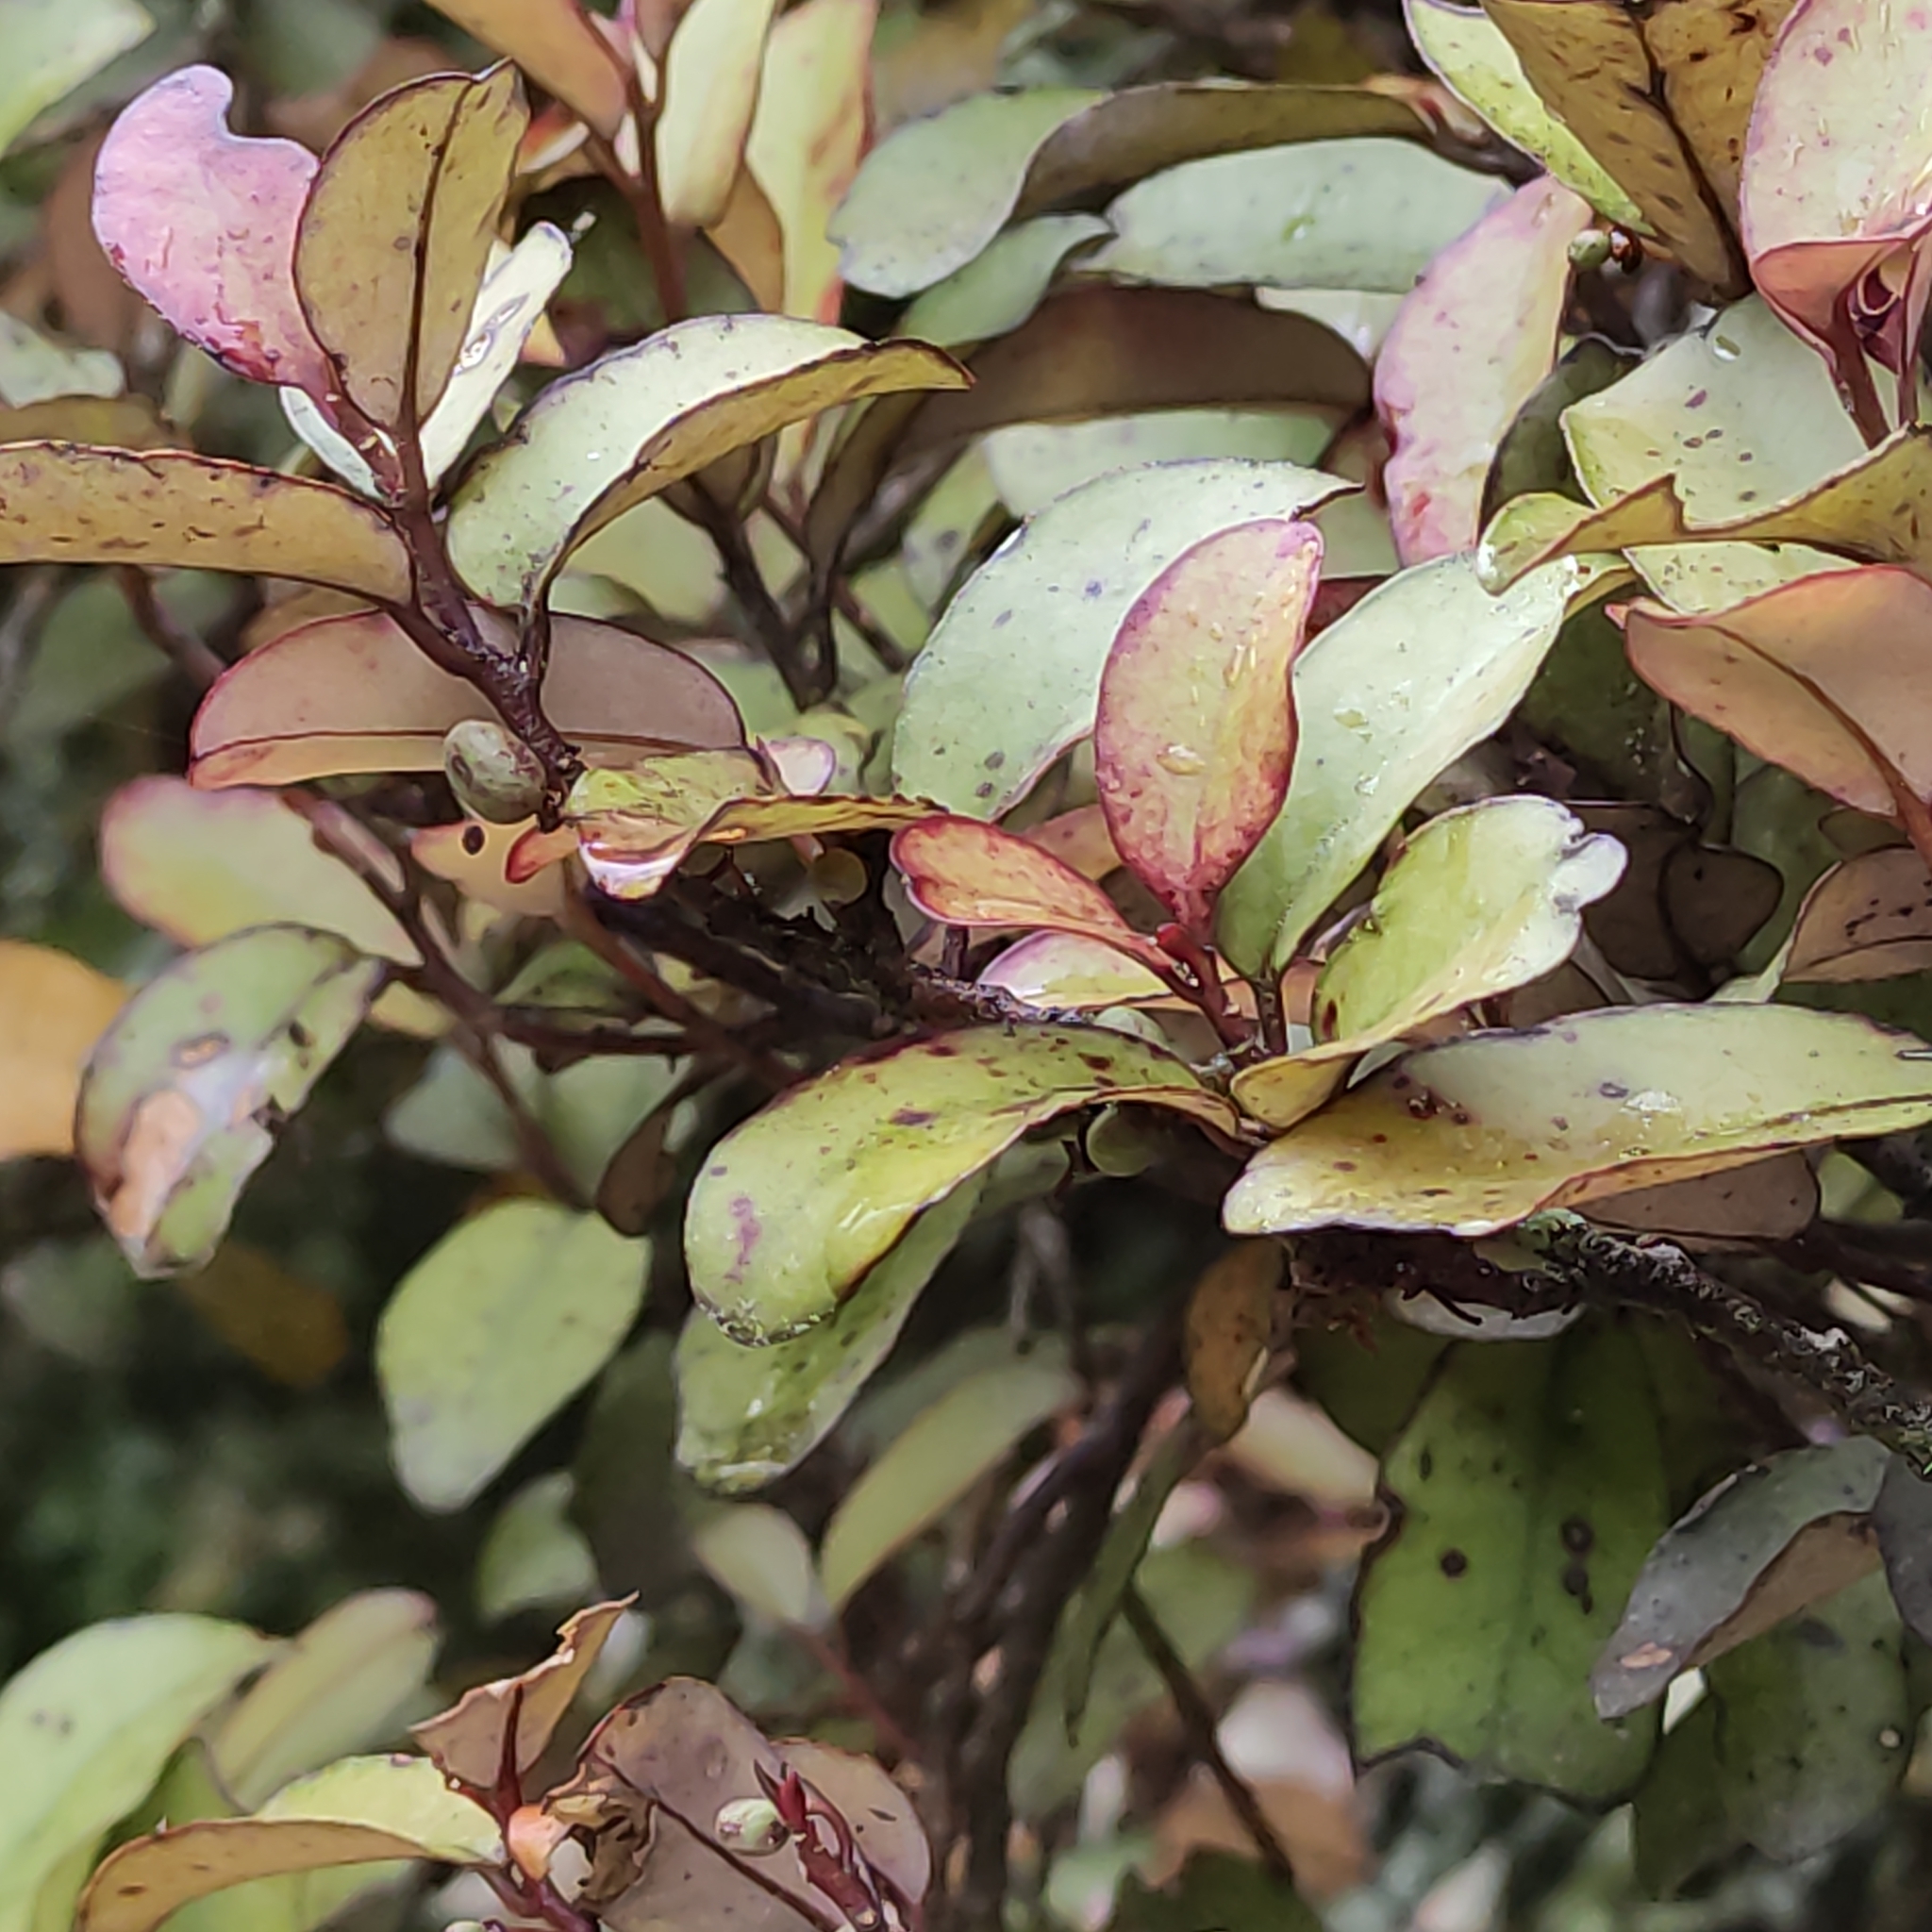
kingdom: Plantae
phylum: Tracheophyta
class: Magnoliopsida
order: Canellales
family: Winteraceae
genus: Pseudowintera
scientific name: Pseudowintera colorata
